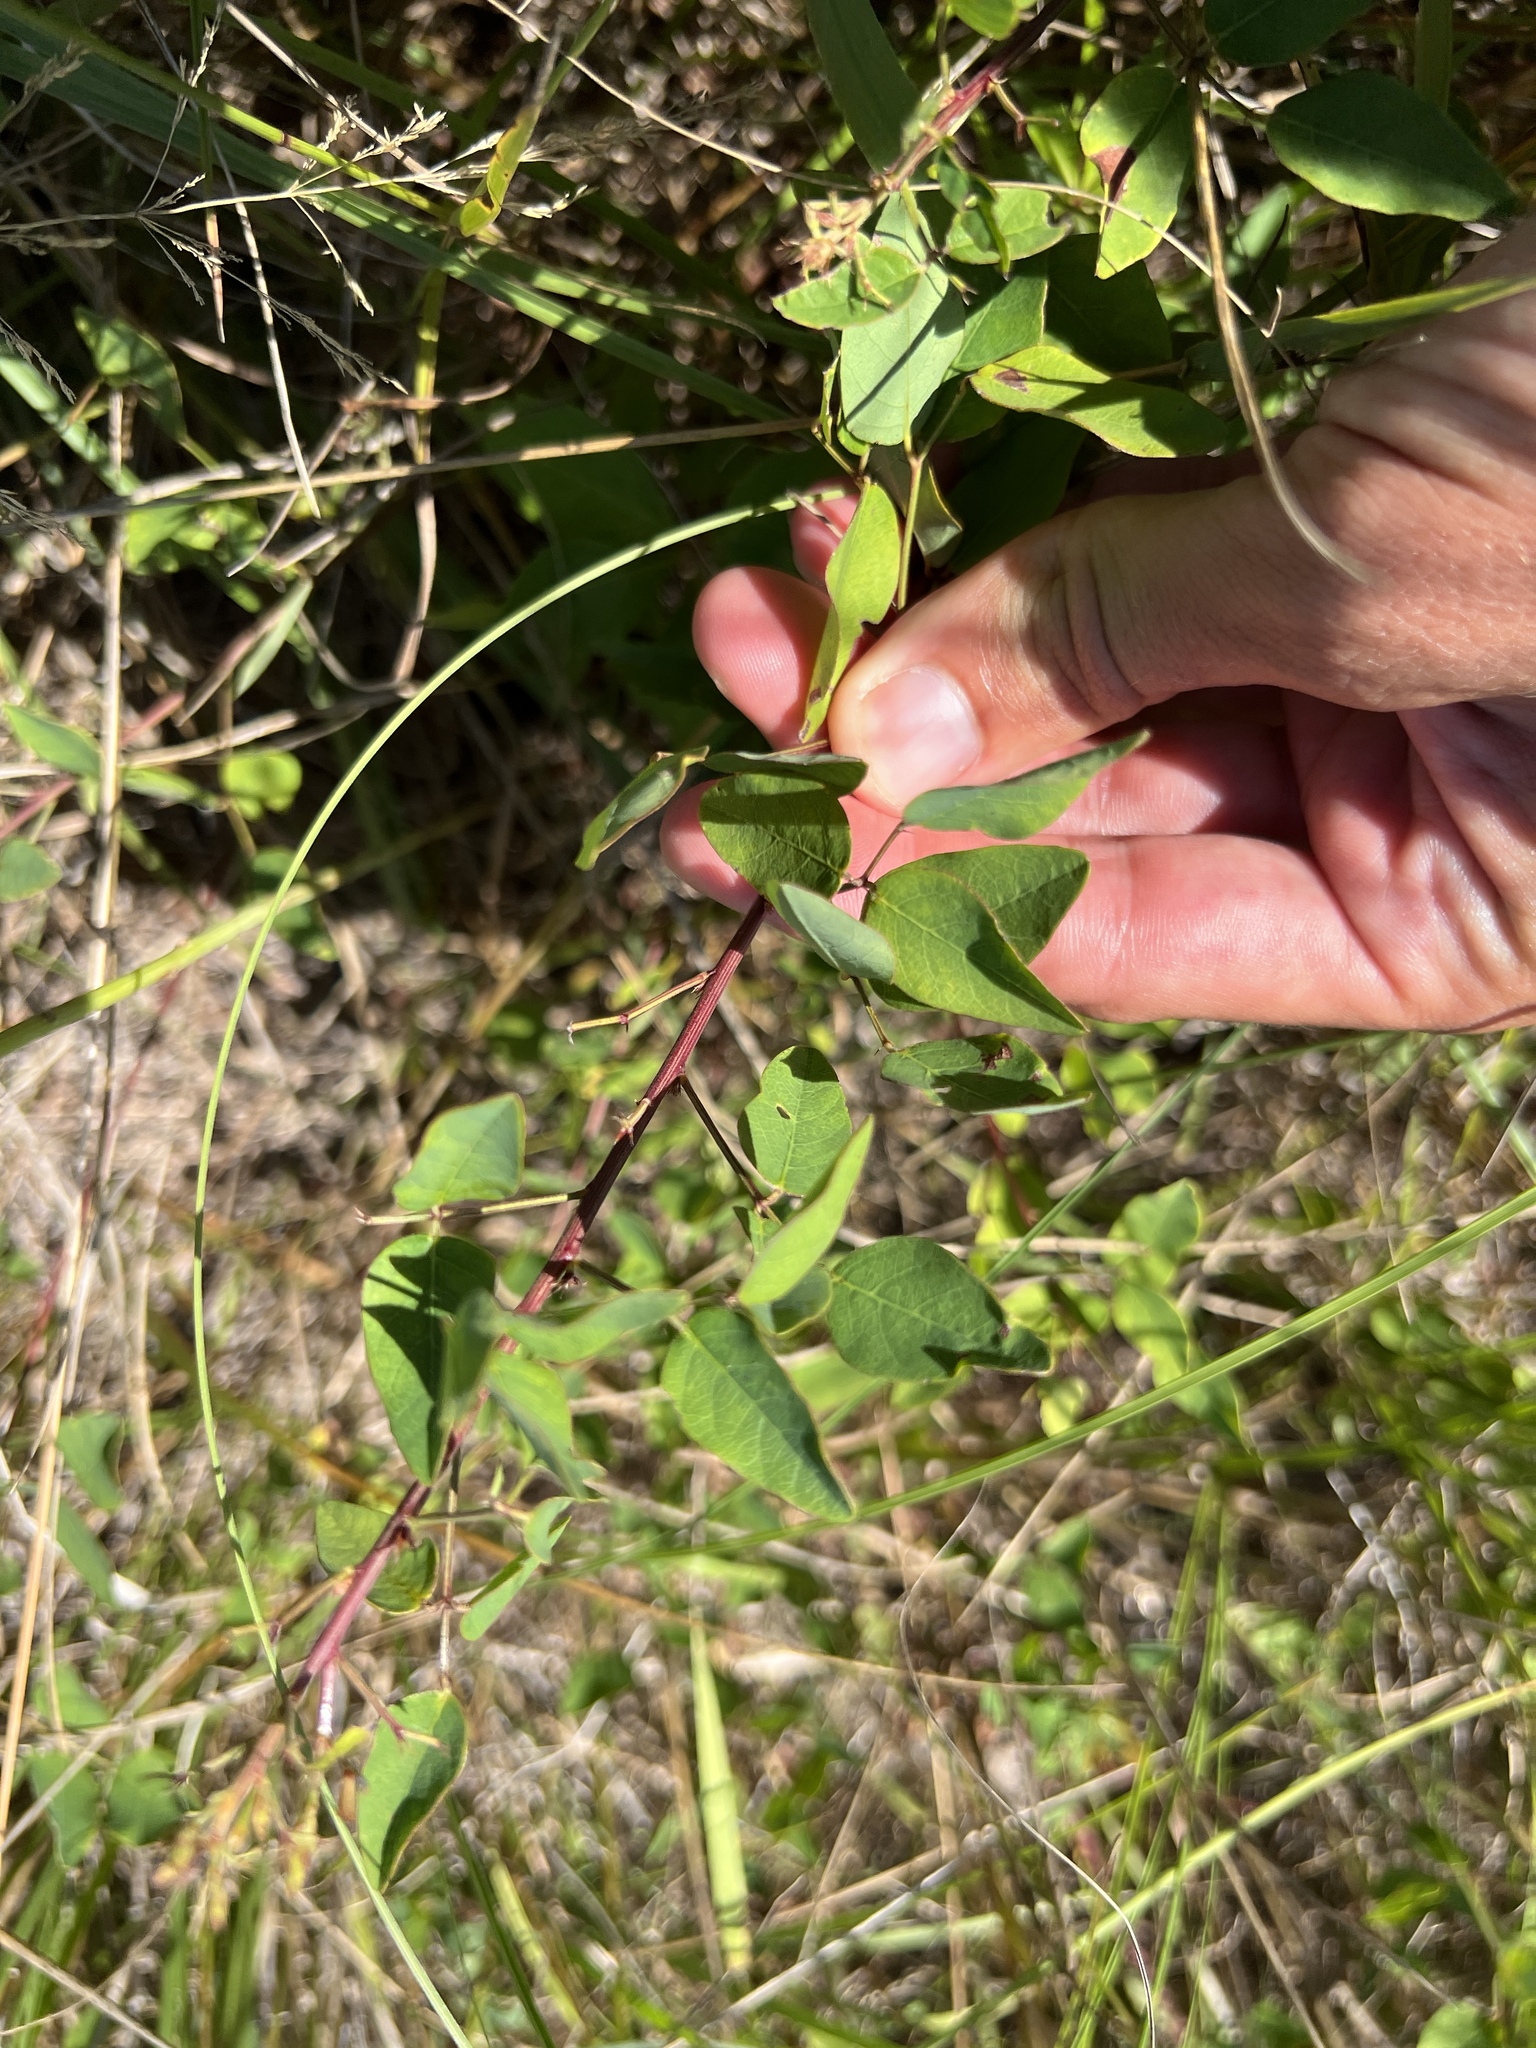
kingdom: Plantae
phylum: Tracheophyta
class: Magnoliopsida
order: Fabales
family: Fabaceae
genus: Desmodium
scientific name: Desmodium marilandicum
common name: Maryland tick-trefoil
